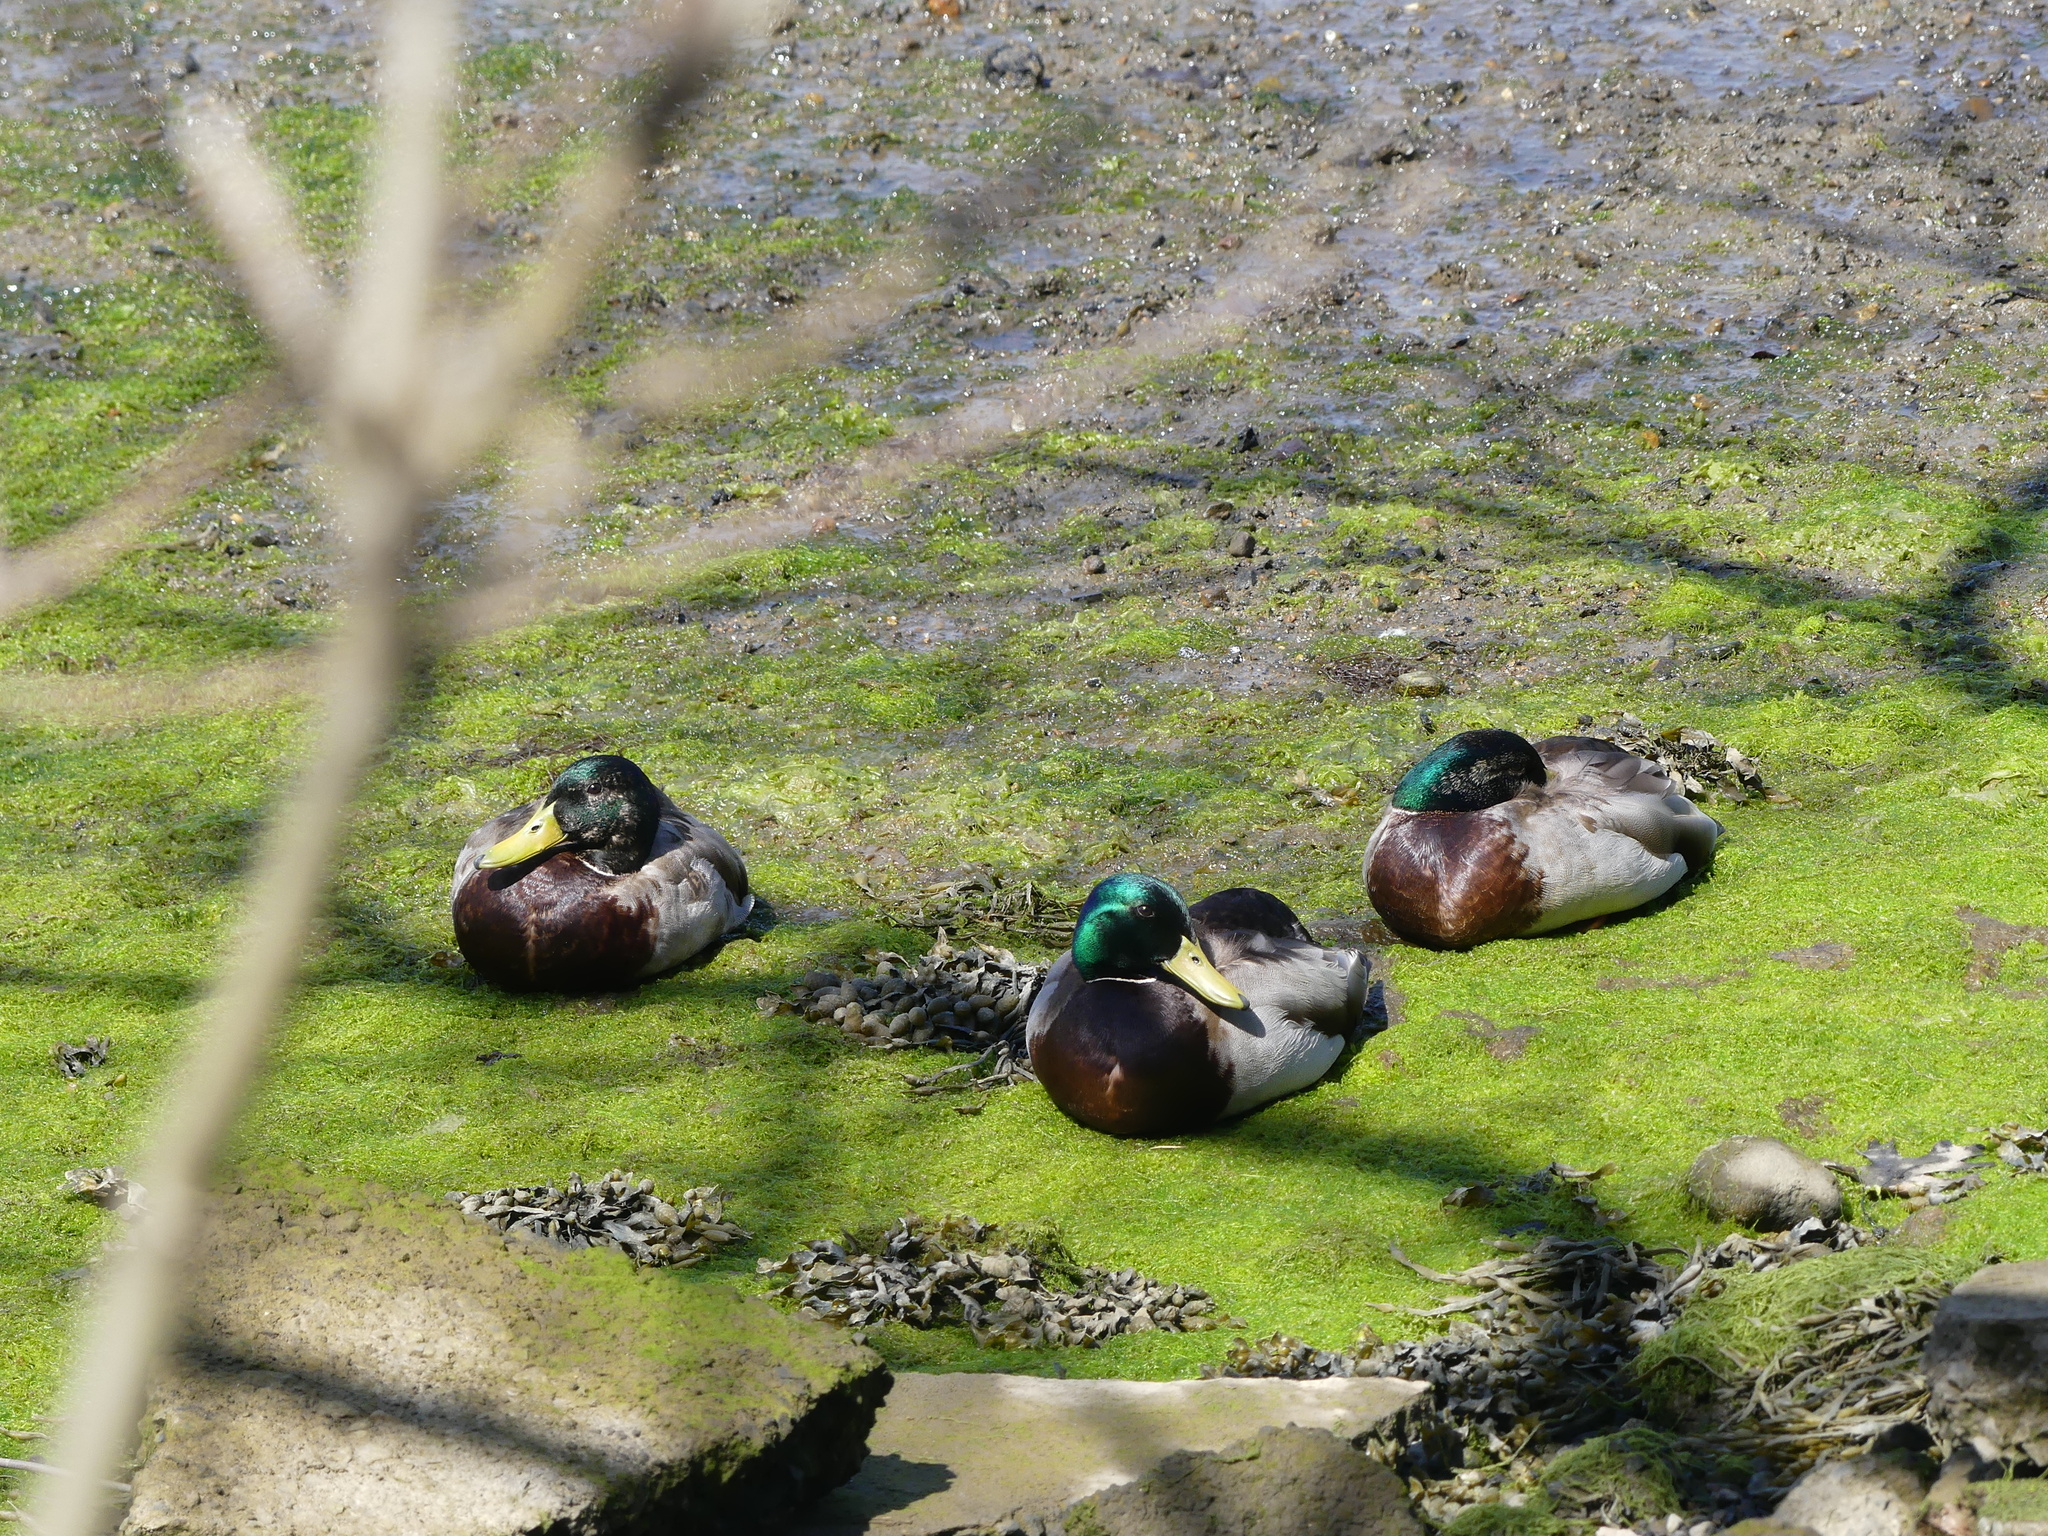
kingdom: Animalia
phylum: Chordata
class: Aves
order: Anseriformes
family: Anatidae
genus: Anas
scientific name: Anas platyrhynchos
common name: Mallard
